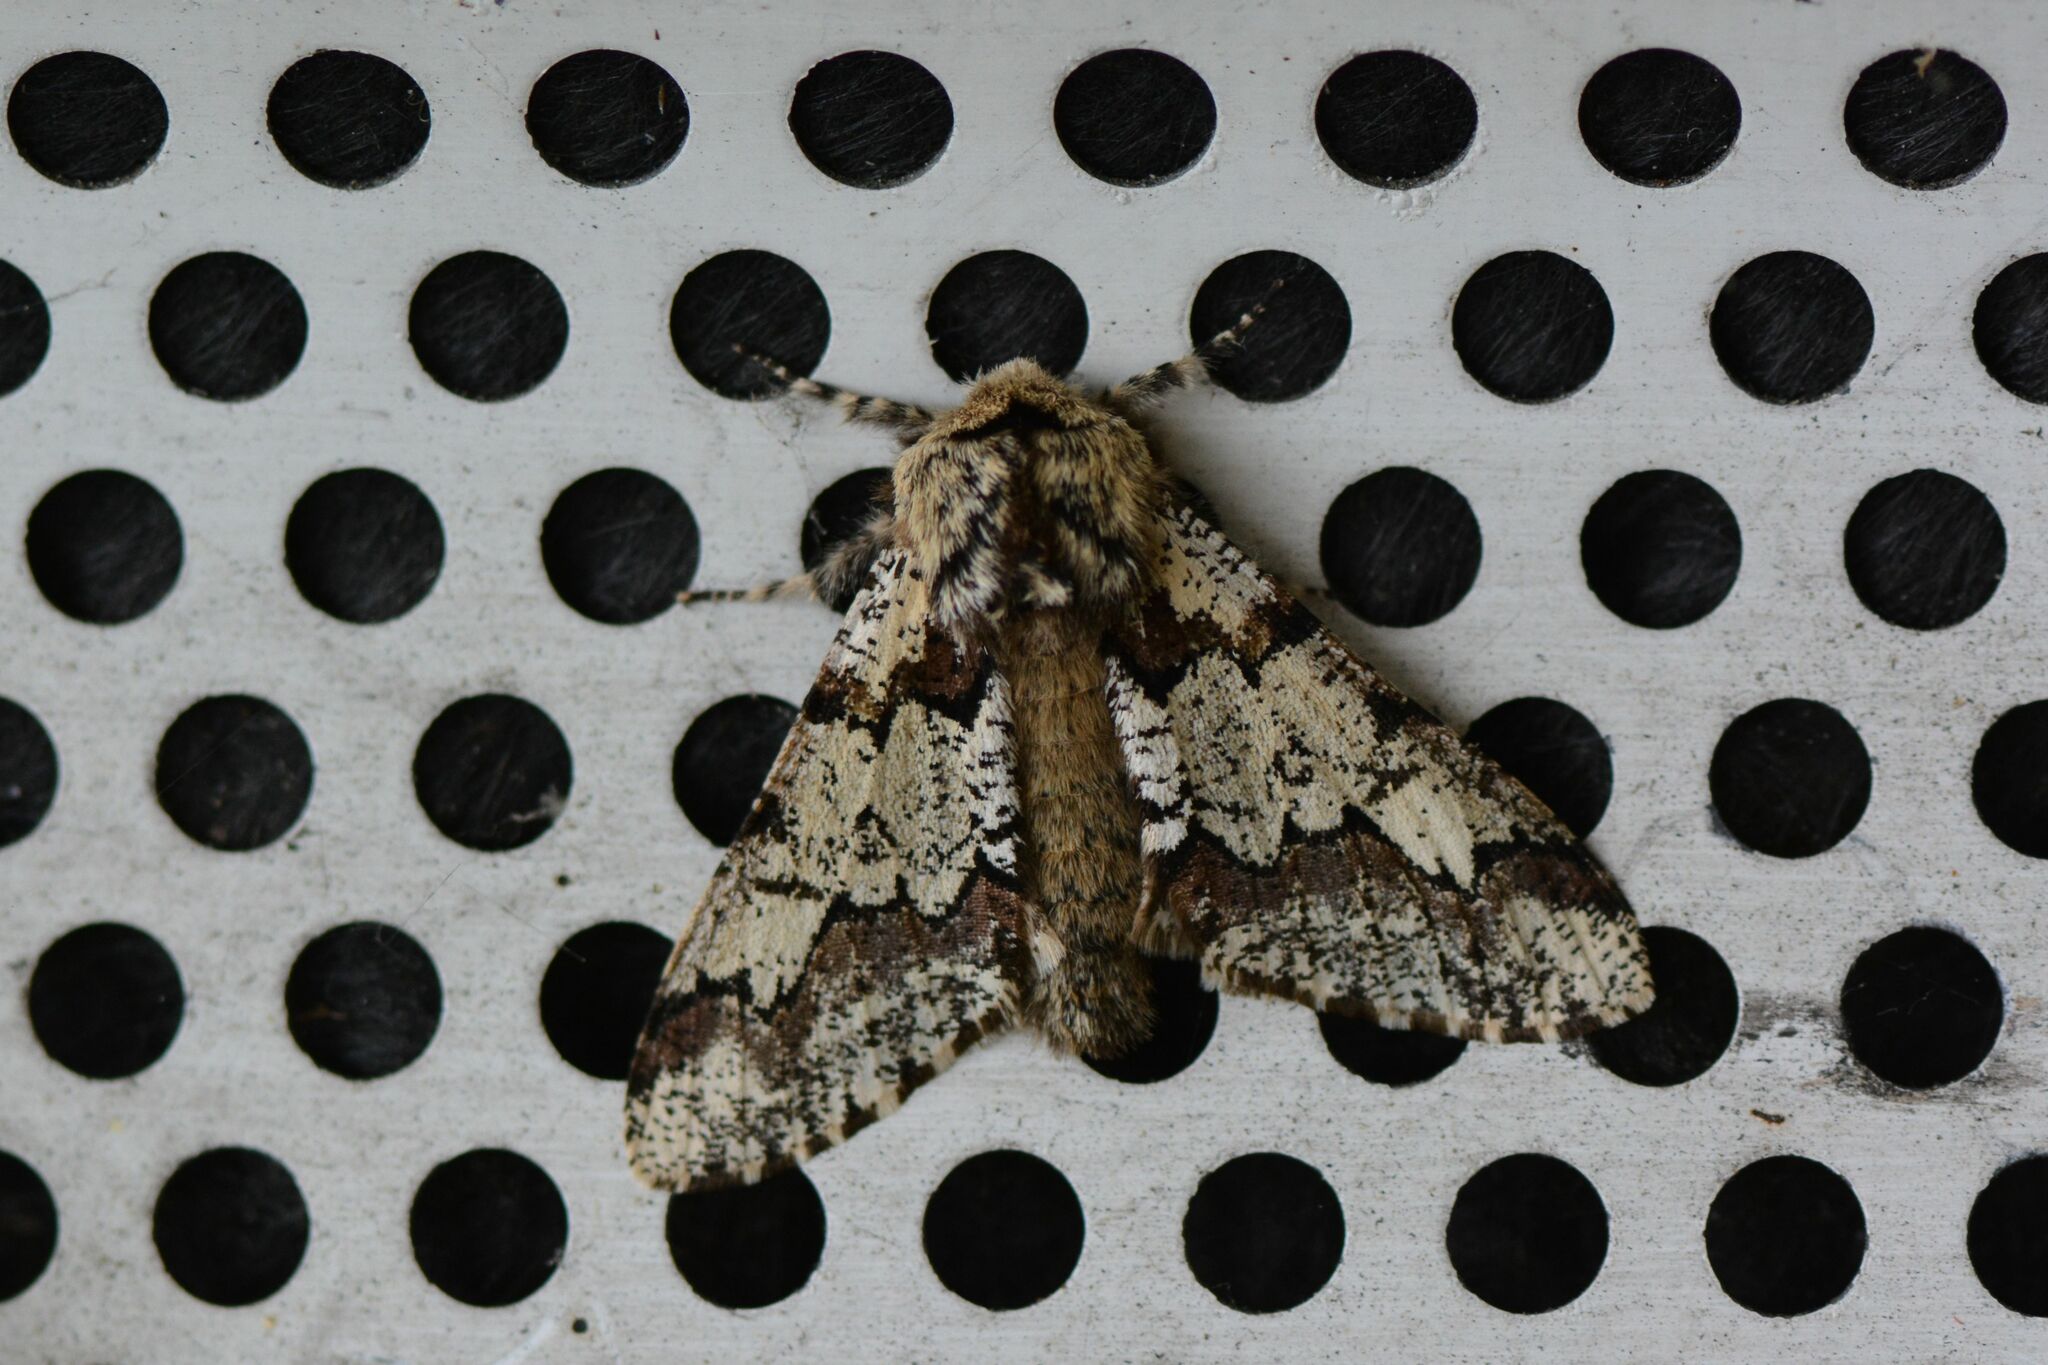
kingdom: Animalia
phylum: Arthropoda
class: Insecta
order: Lepidoptera
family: Geometridae
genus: Biston
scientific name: Biston strataria
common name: Oak beauty
